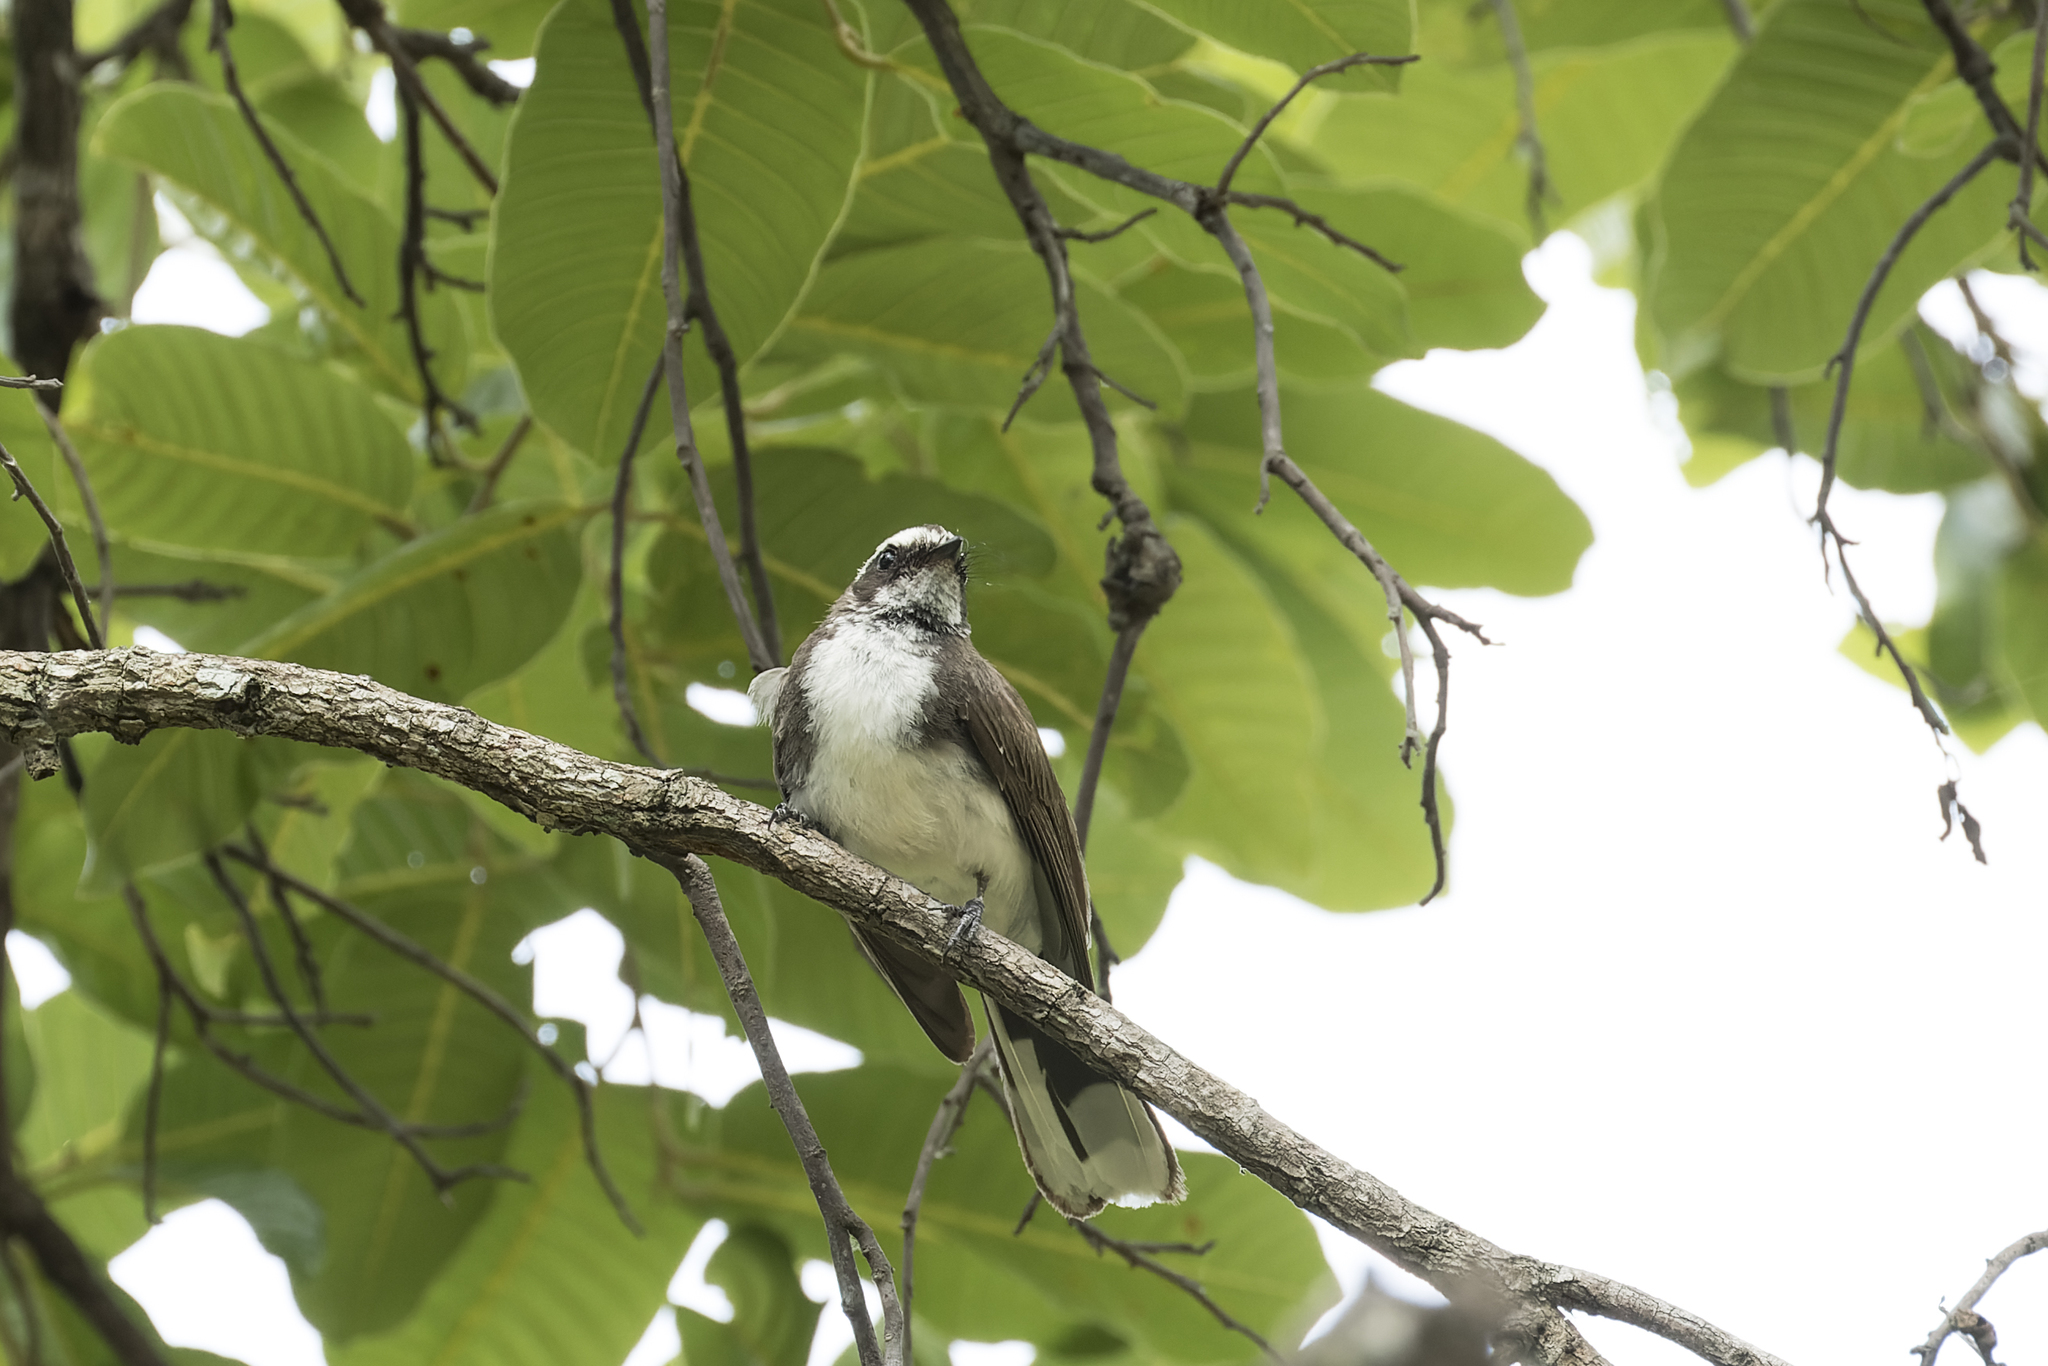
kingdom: Animalia
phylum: Chordata
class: Aves
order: Passeriformes
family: Rhipiduridae
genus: Rhipidura
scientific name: Rhipidura aureola
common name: White-browed fantail
